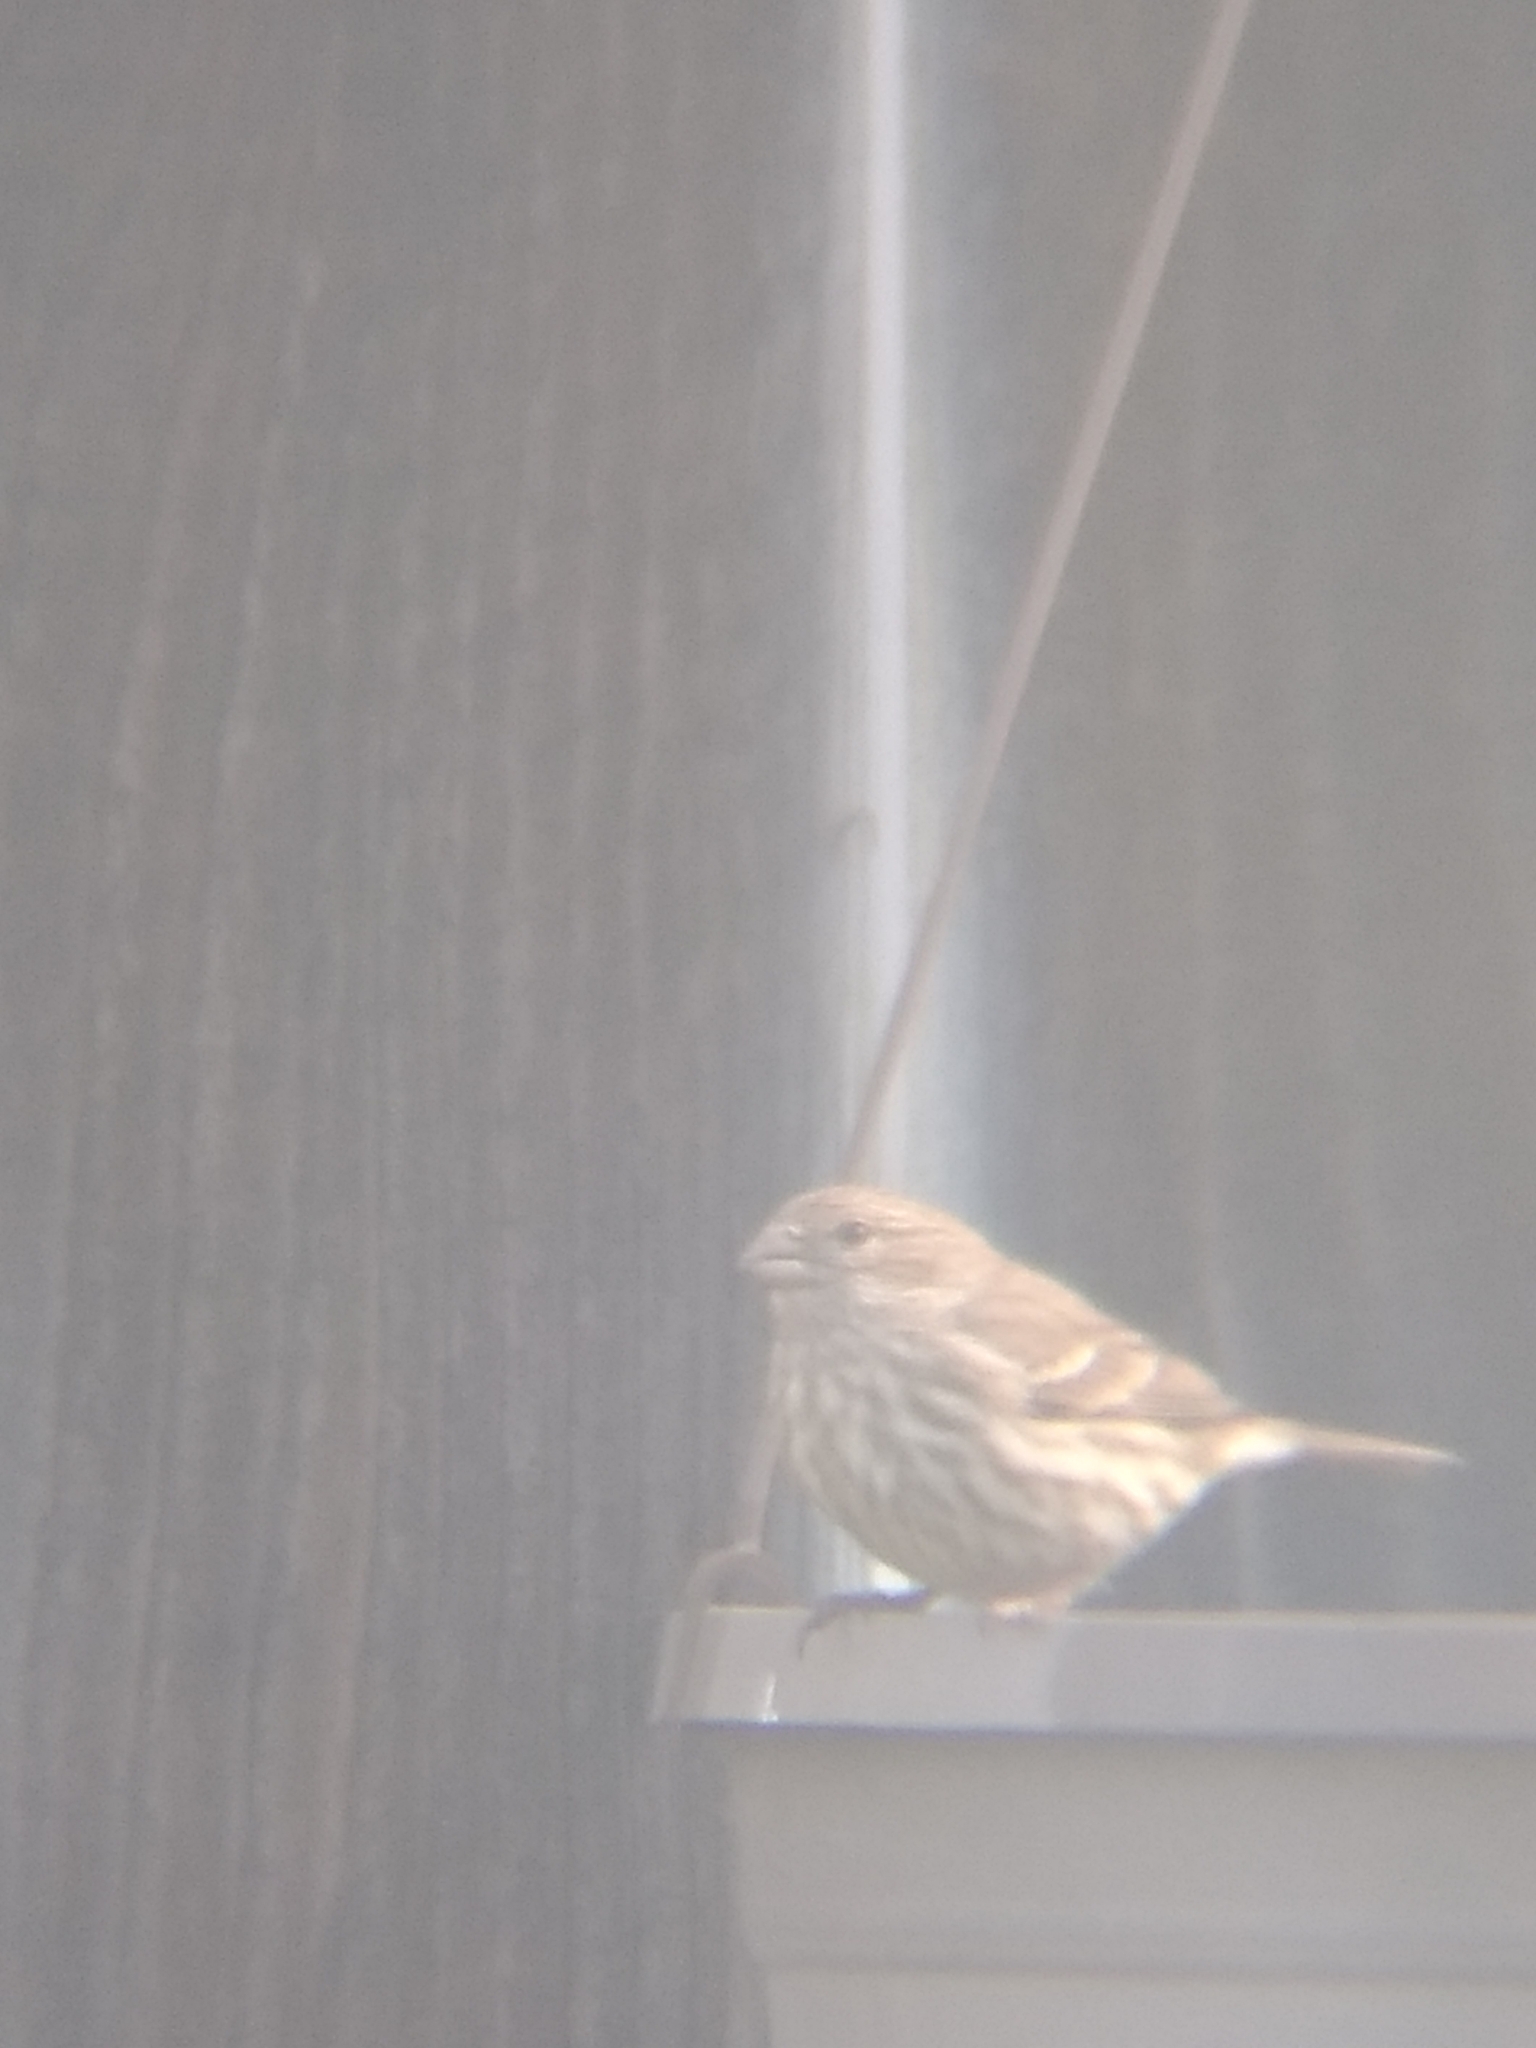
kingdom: Animalia
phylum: Chordata
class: Aves
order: Passeriformes
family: Fringillidae
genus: Haemorhous
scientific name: Haemorhous mexicanus
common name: House finch
